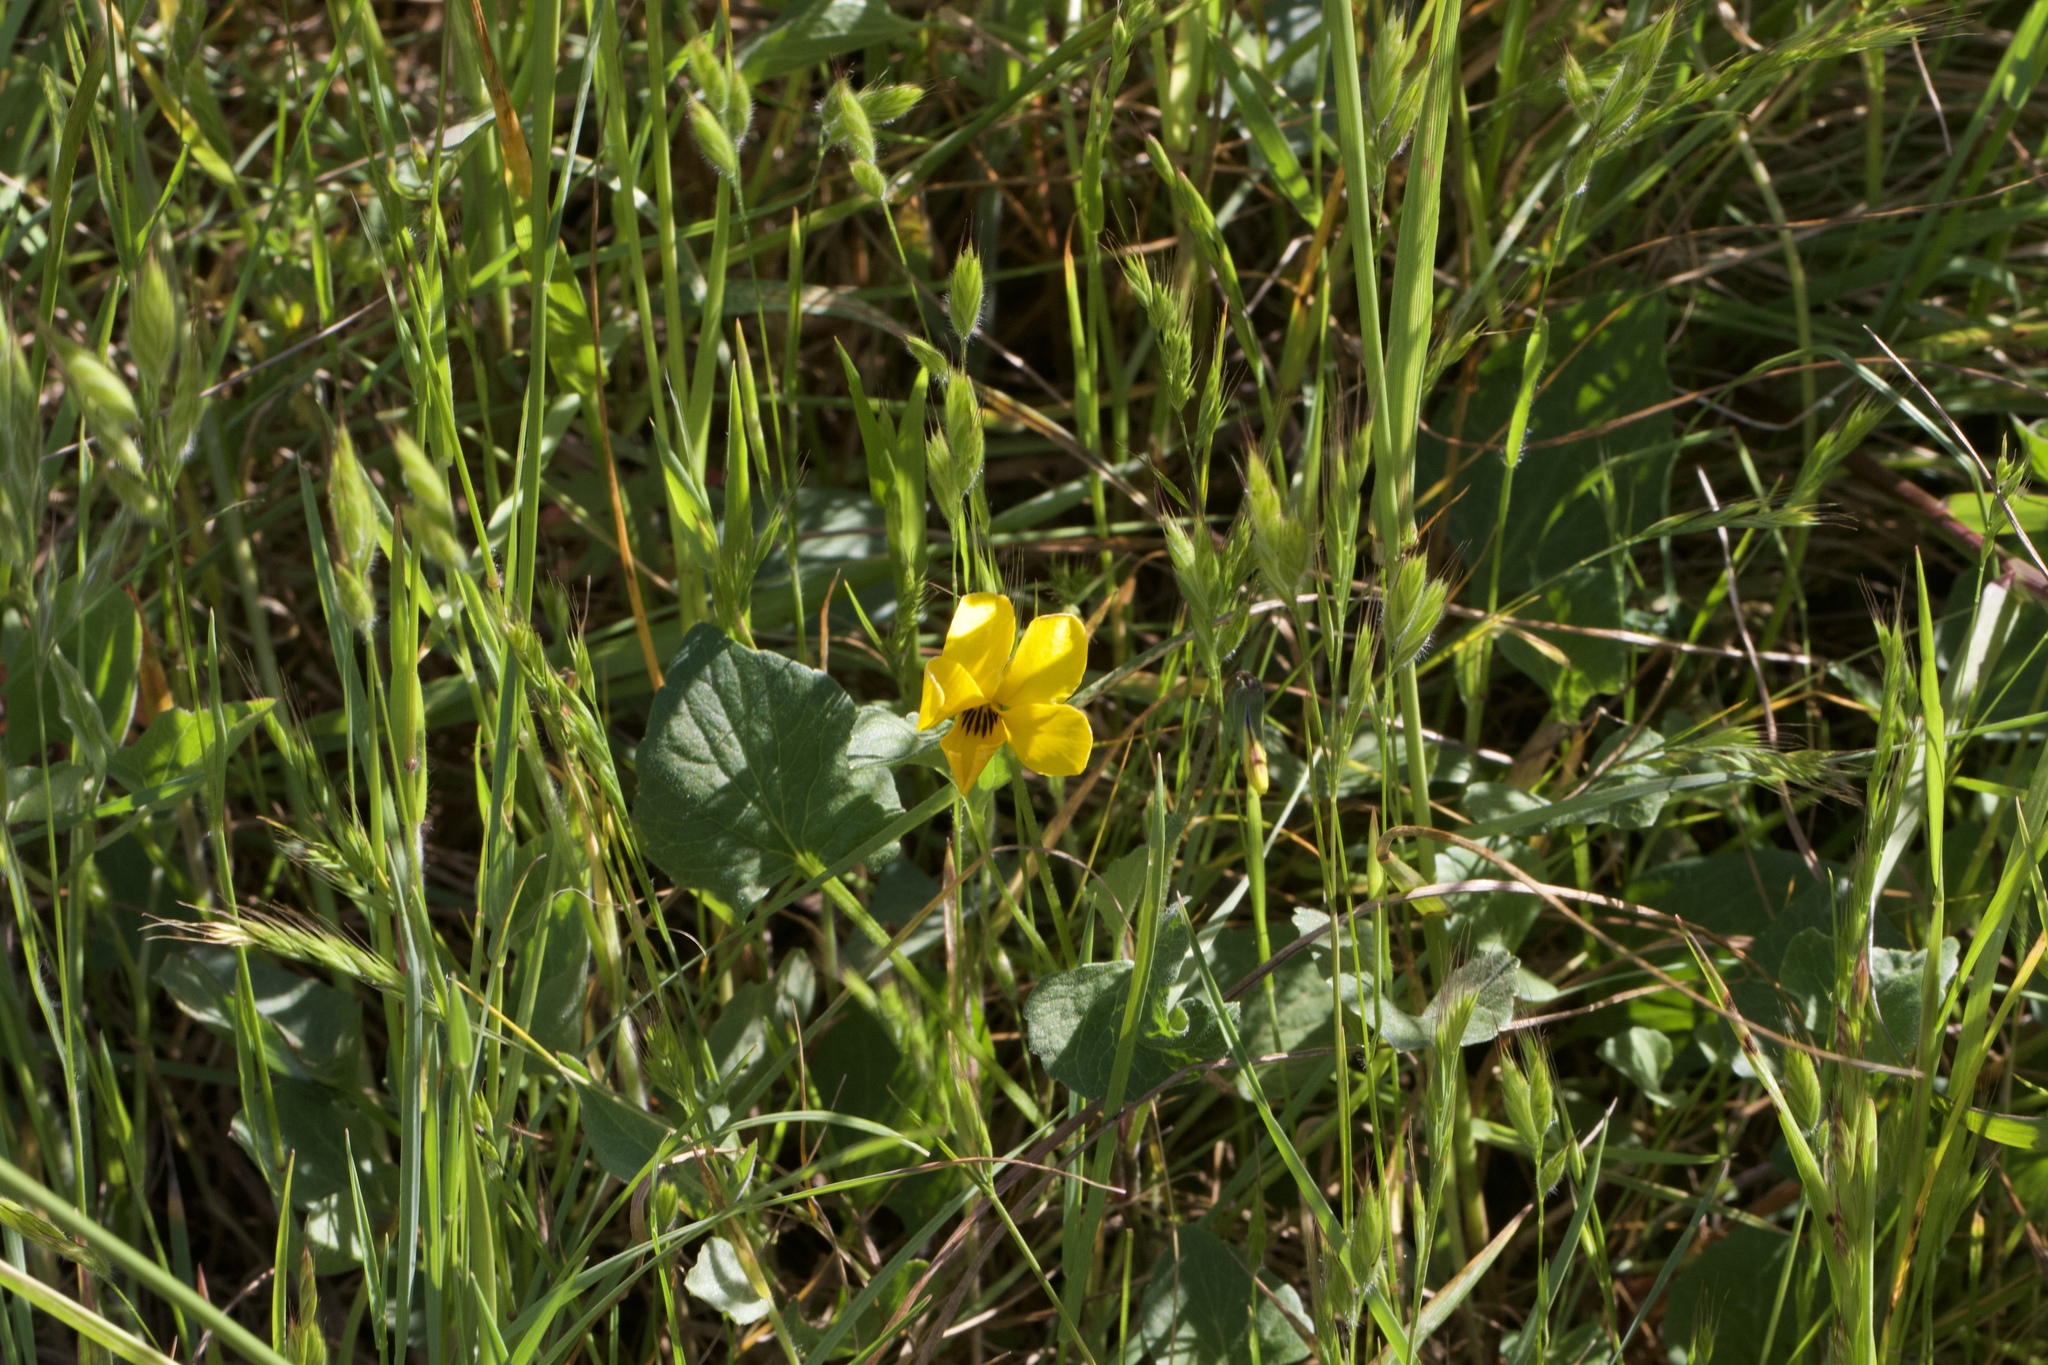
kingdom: Plantae
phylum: Tracheophyta
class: Magnoliopsida
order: Malpighiales
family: Violaceae
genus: Viola
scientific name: Viola pedunculata
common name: California golden violet
